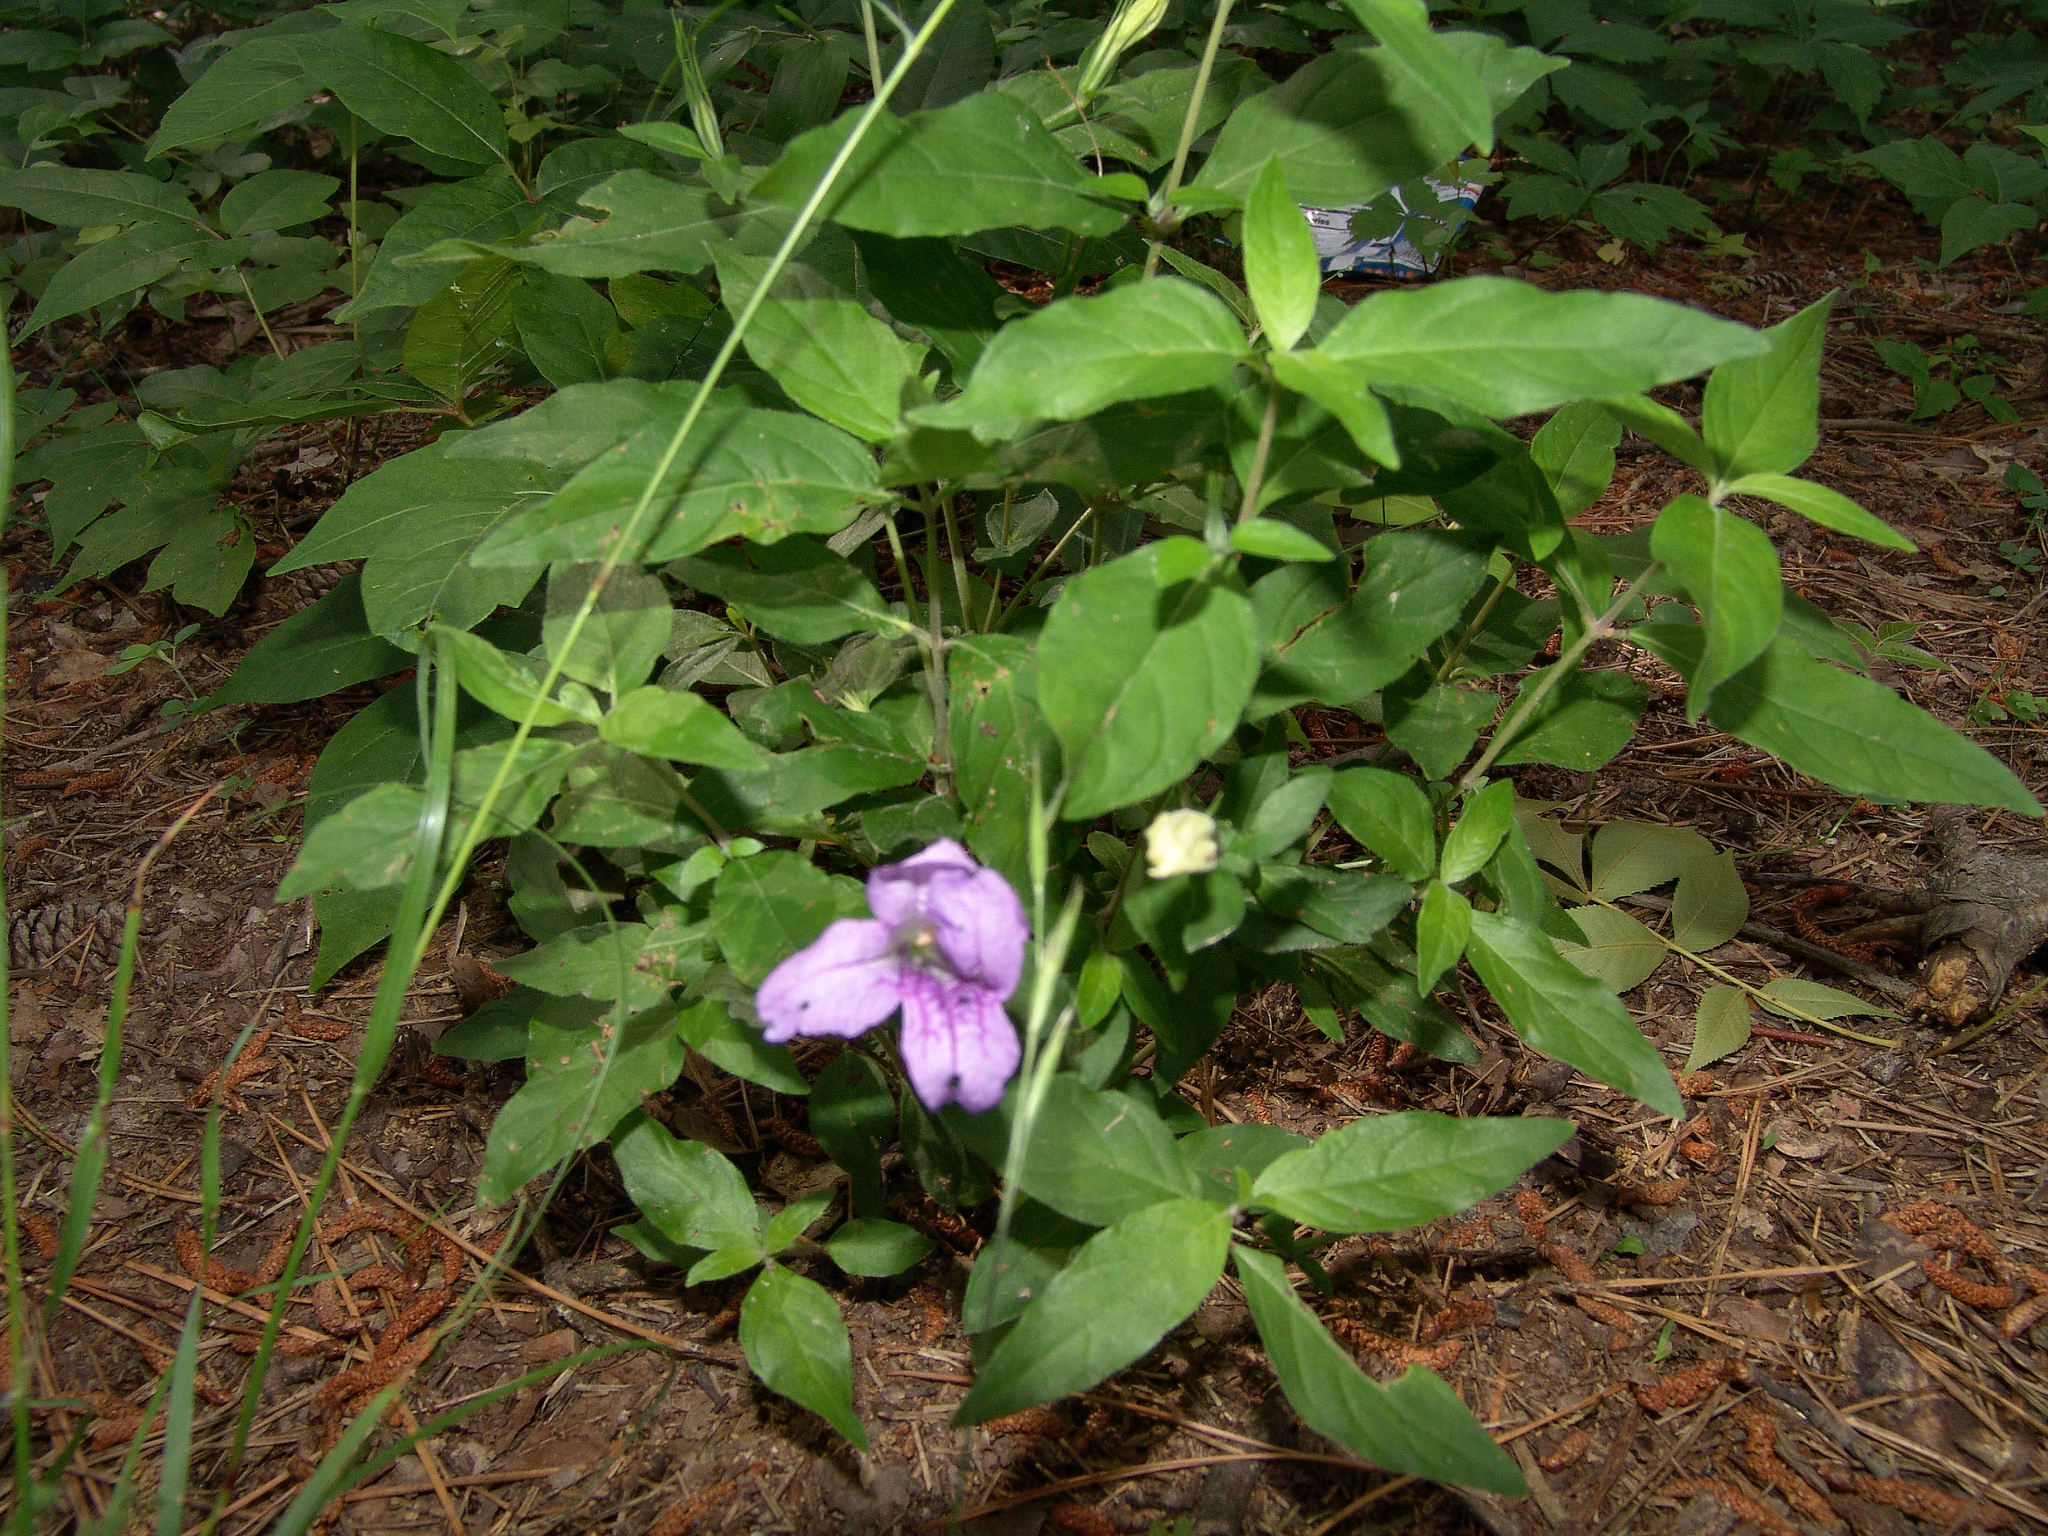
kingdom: Plantae
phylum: Tracheophyta
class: Magnoliopsida
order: Lamiales
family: Acanthaceae
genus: Ruellia
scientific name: Ruellia pedunculata
